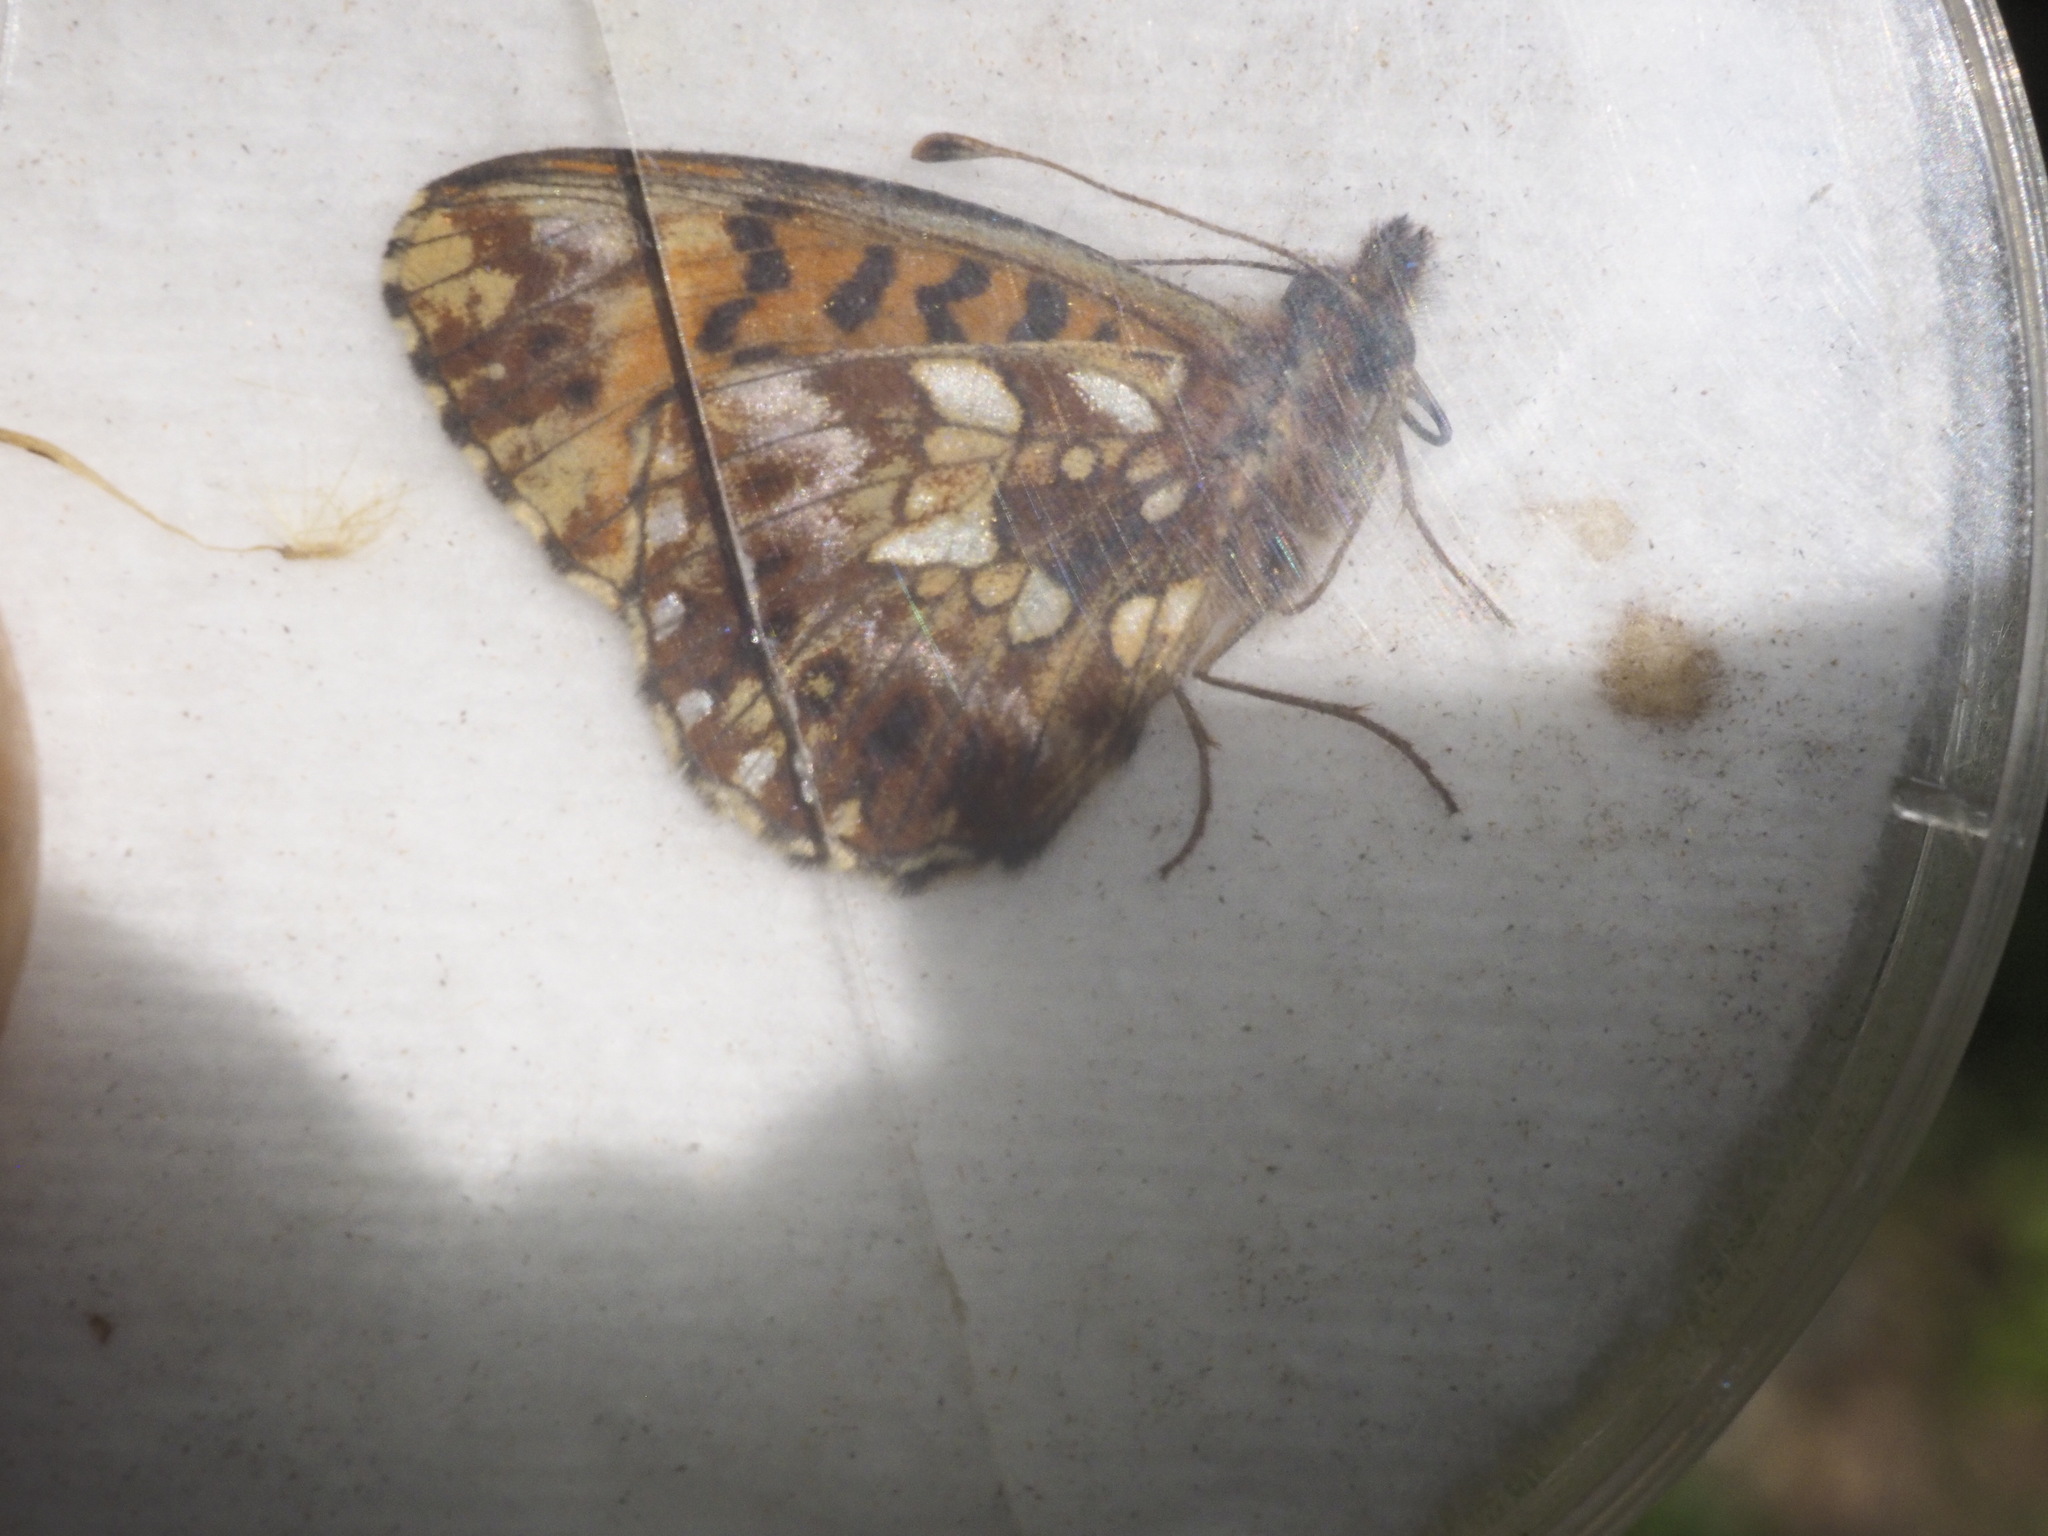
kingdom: Animalia
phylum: Arthropoda
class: Insecta
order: Lepidoptera
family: Nymphalidae
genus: Boloria
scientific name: Boloria dia
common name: Weaver's fritillary
